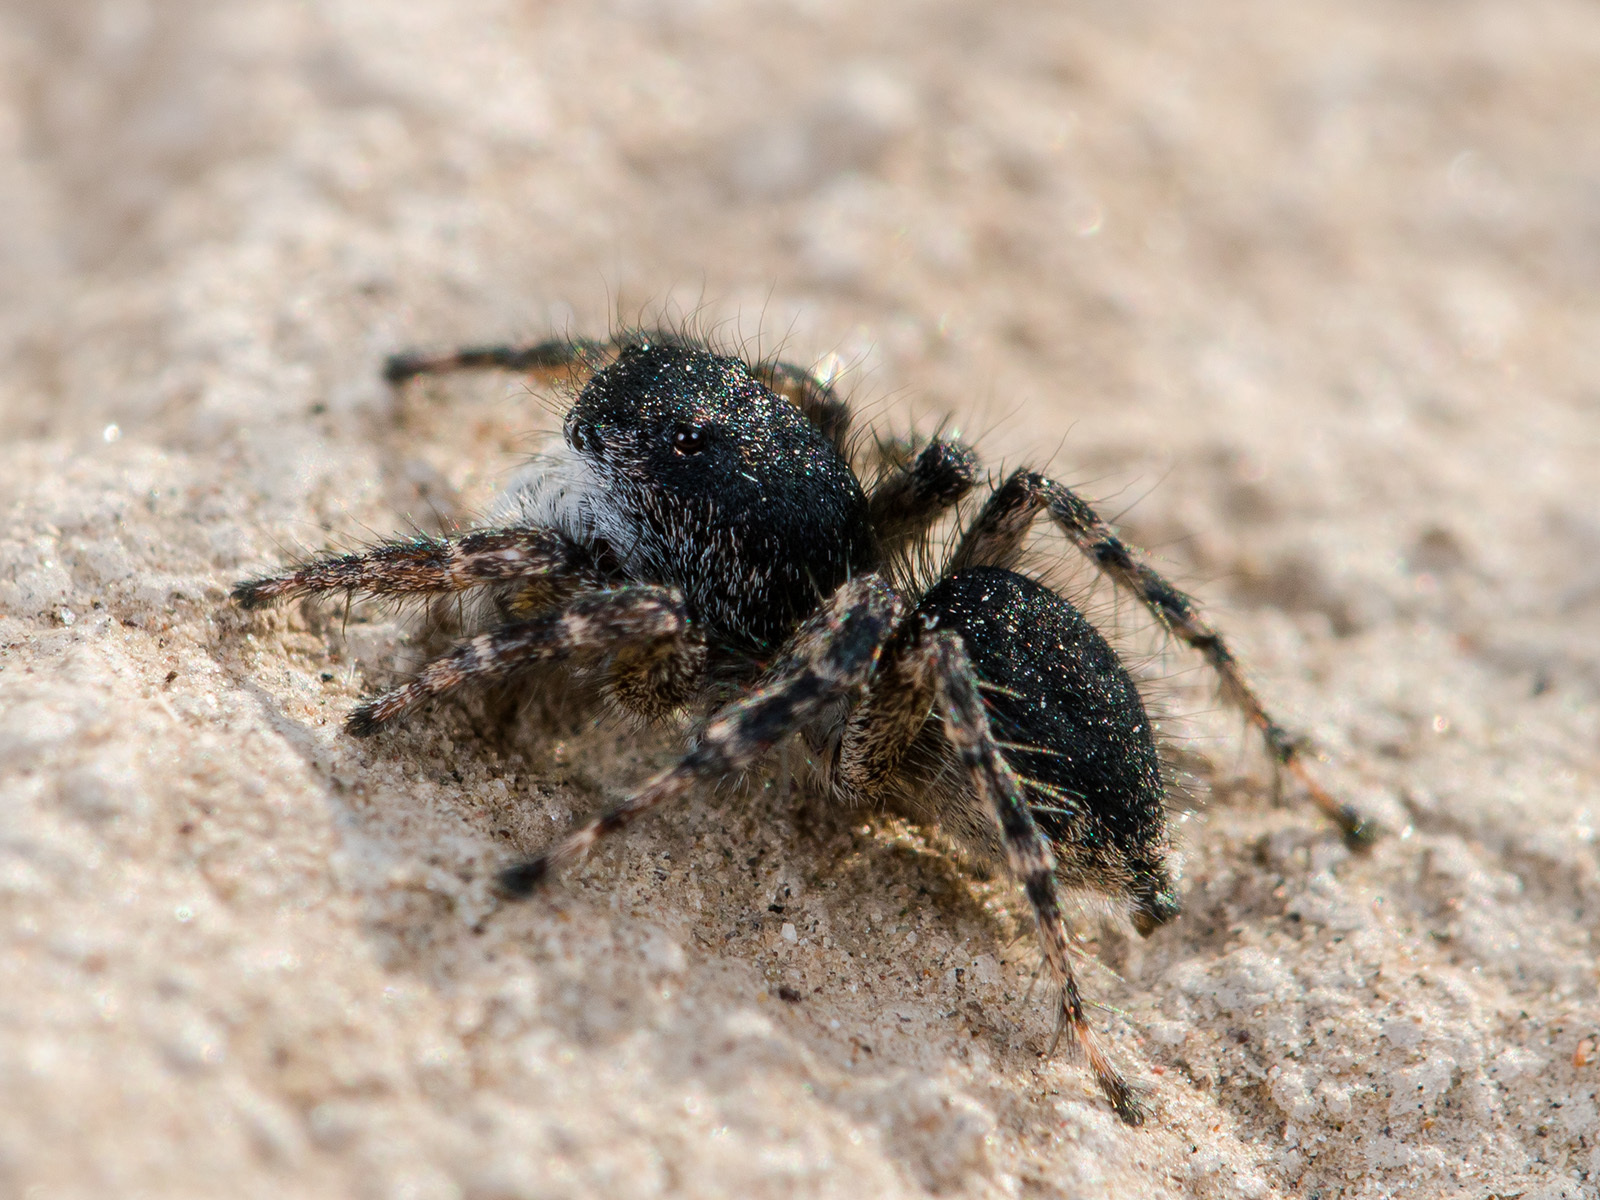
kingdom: Animalia
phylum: Arthropoda
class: Arachnida
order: Araneae
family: Salticidae
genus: Aelurillus
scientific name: Aelurillus dubatolovi
